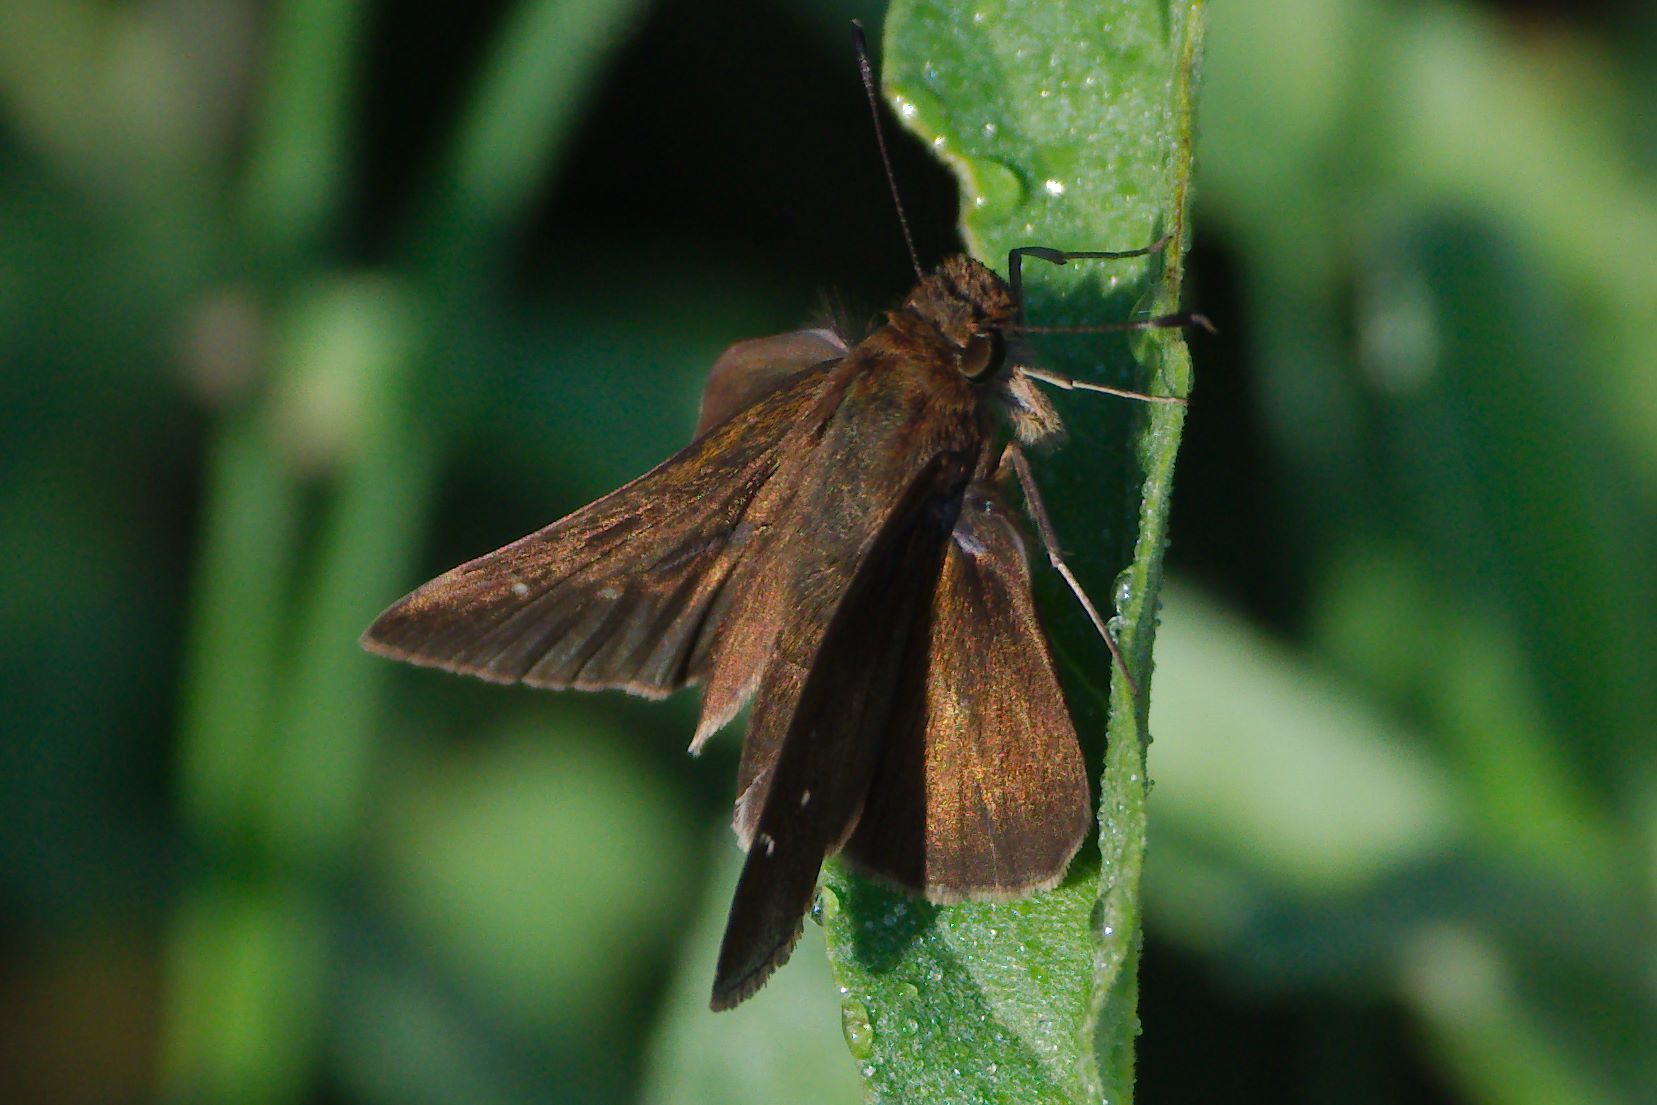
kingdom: Animalia
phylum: Arthropoda
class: Insecta
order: Lepidoptera
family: Hesperiidae
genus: Lerema
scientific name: Lerema accius
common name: Clouded skipper
